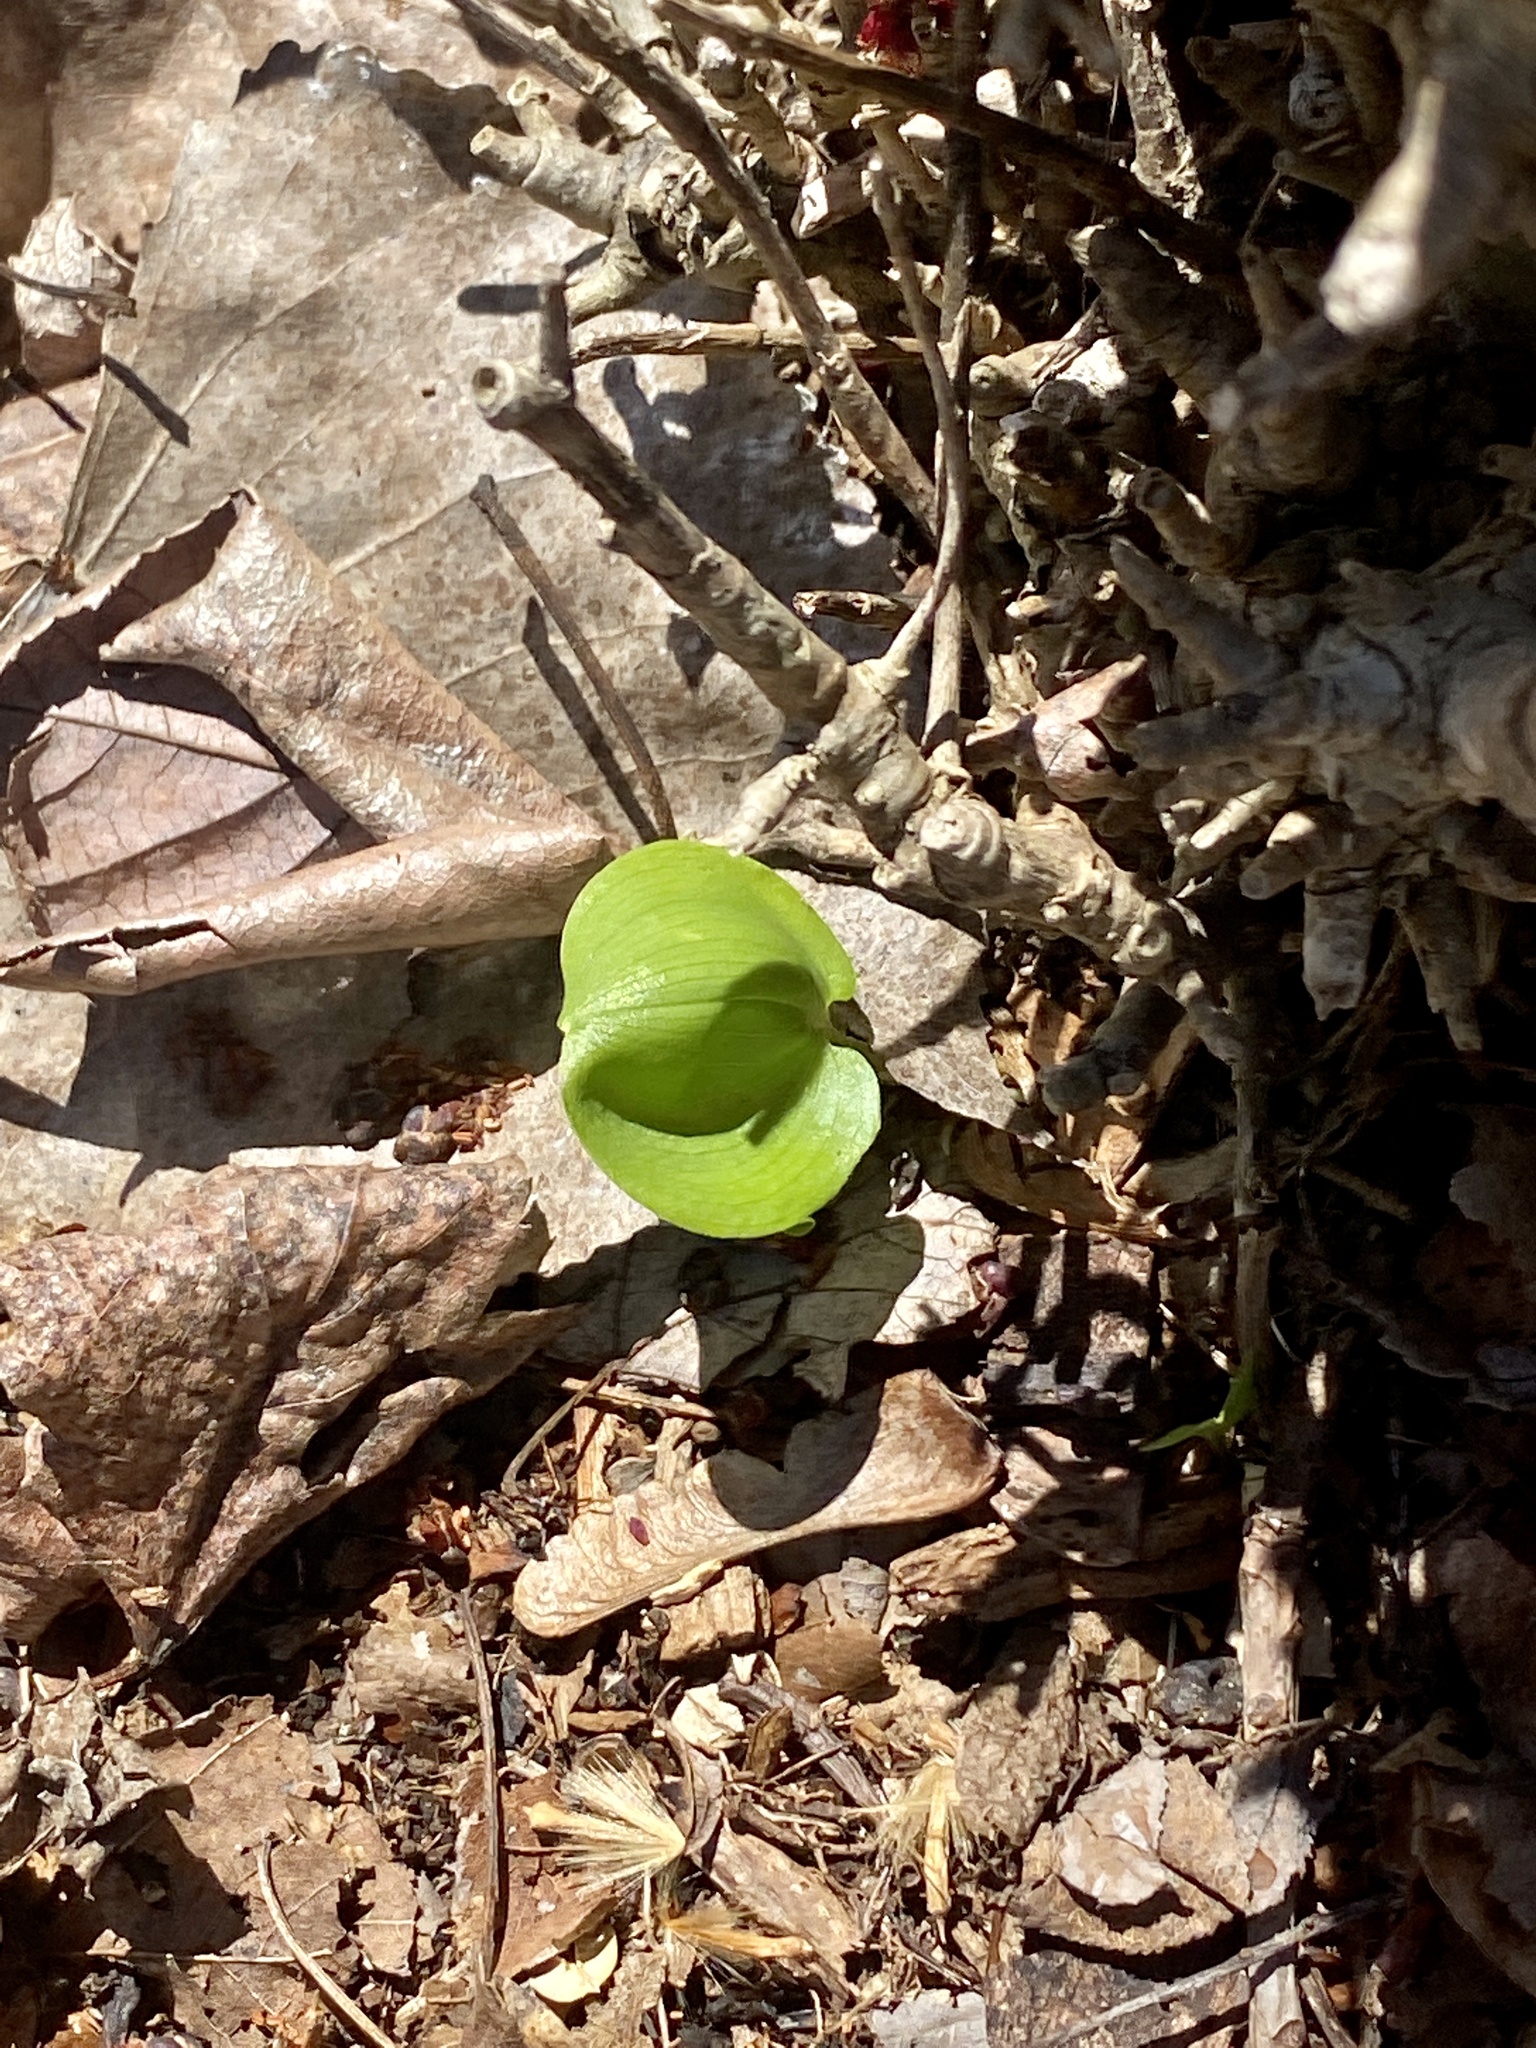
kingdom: Plantae
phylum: Tracheophyta
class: Liliopsida
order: Asparagales
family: Asparagaceae
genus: Maianthemum
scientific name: Maianthemum canadense
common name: False lily-of-the-valley
